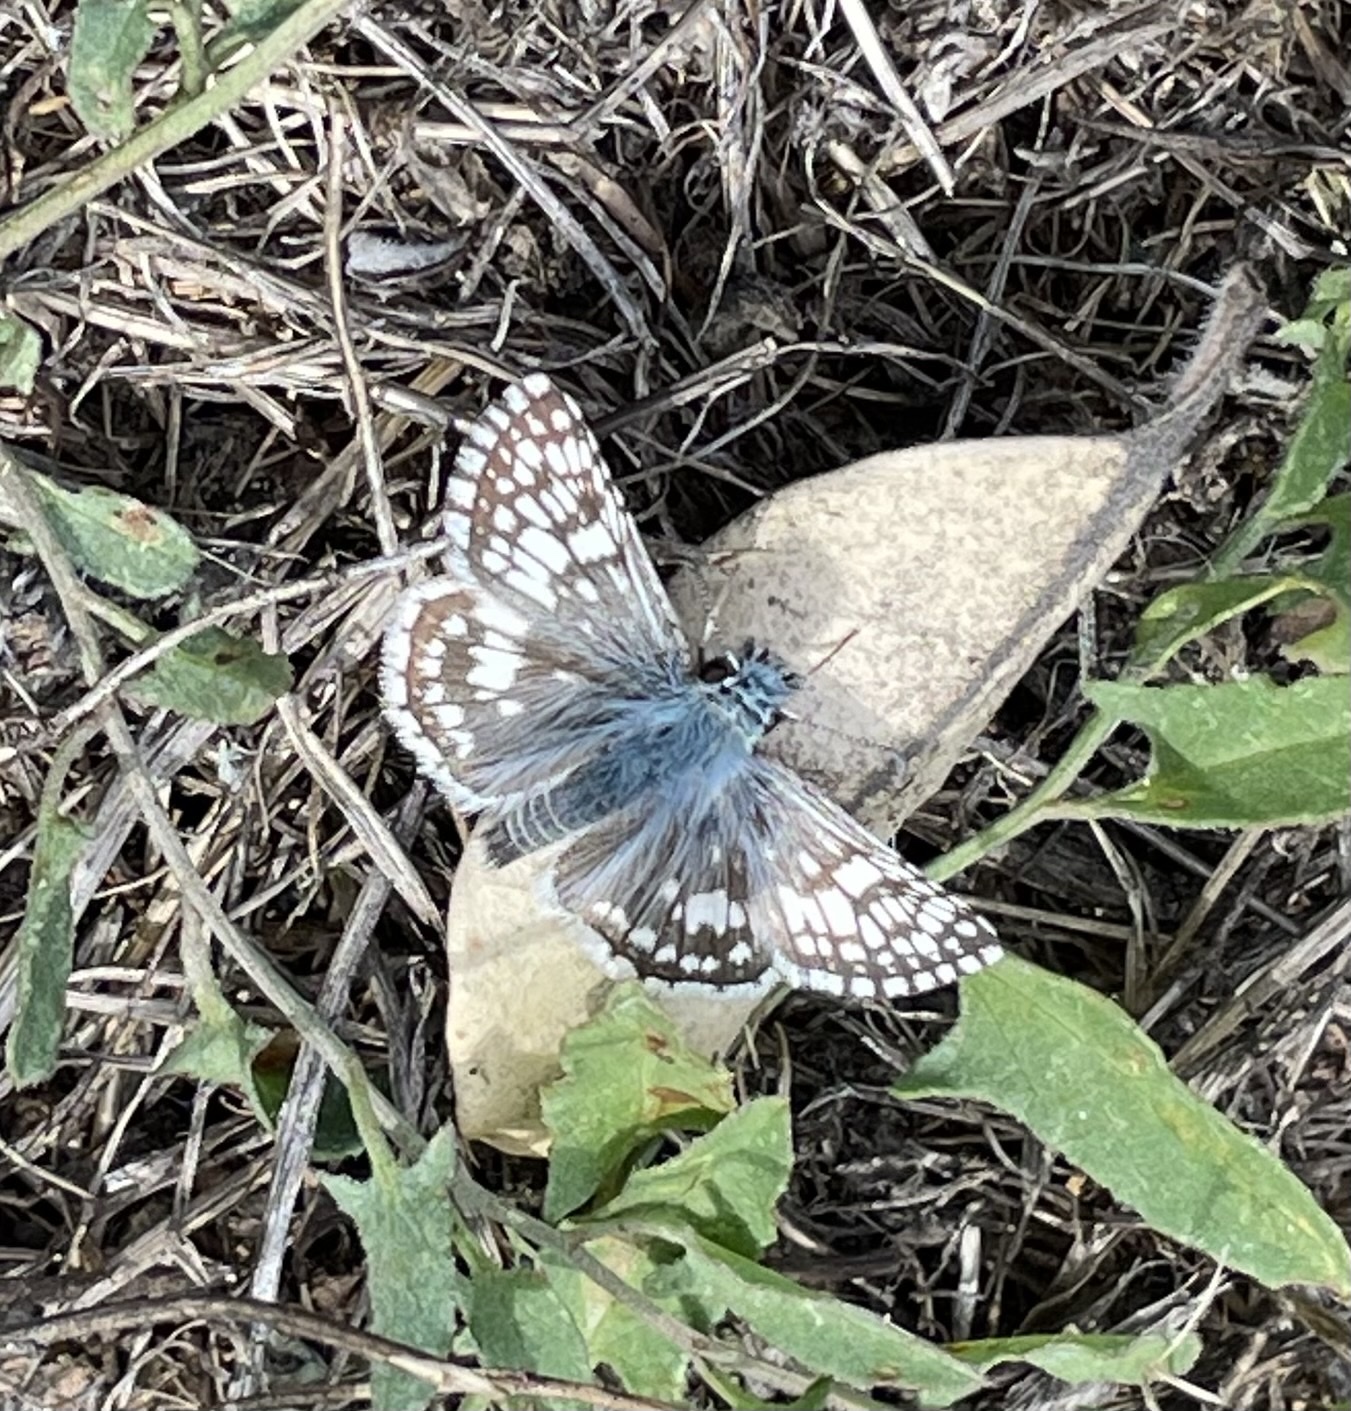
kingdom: Animalia
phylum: Arthropoda
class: Insecta
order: Lepidoptera
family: Hesperiidae
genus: Burnsius
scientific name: Burnsius communis
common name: Common checkered-skipper
